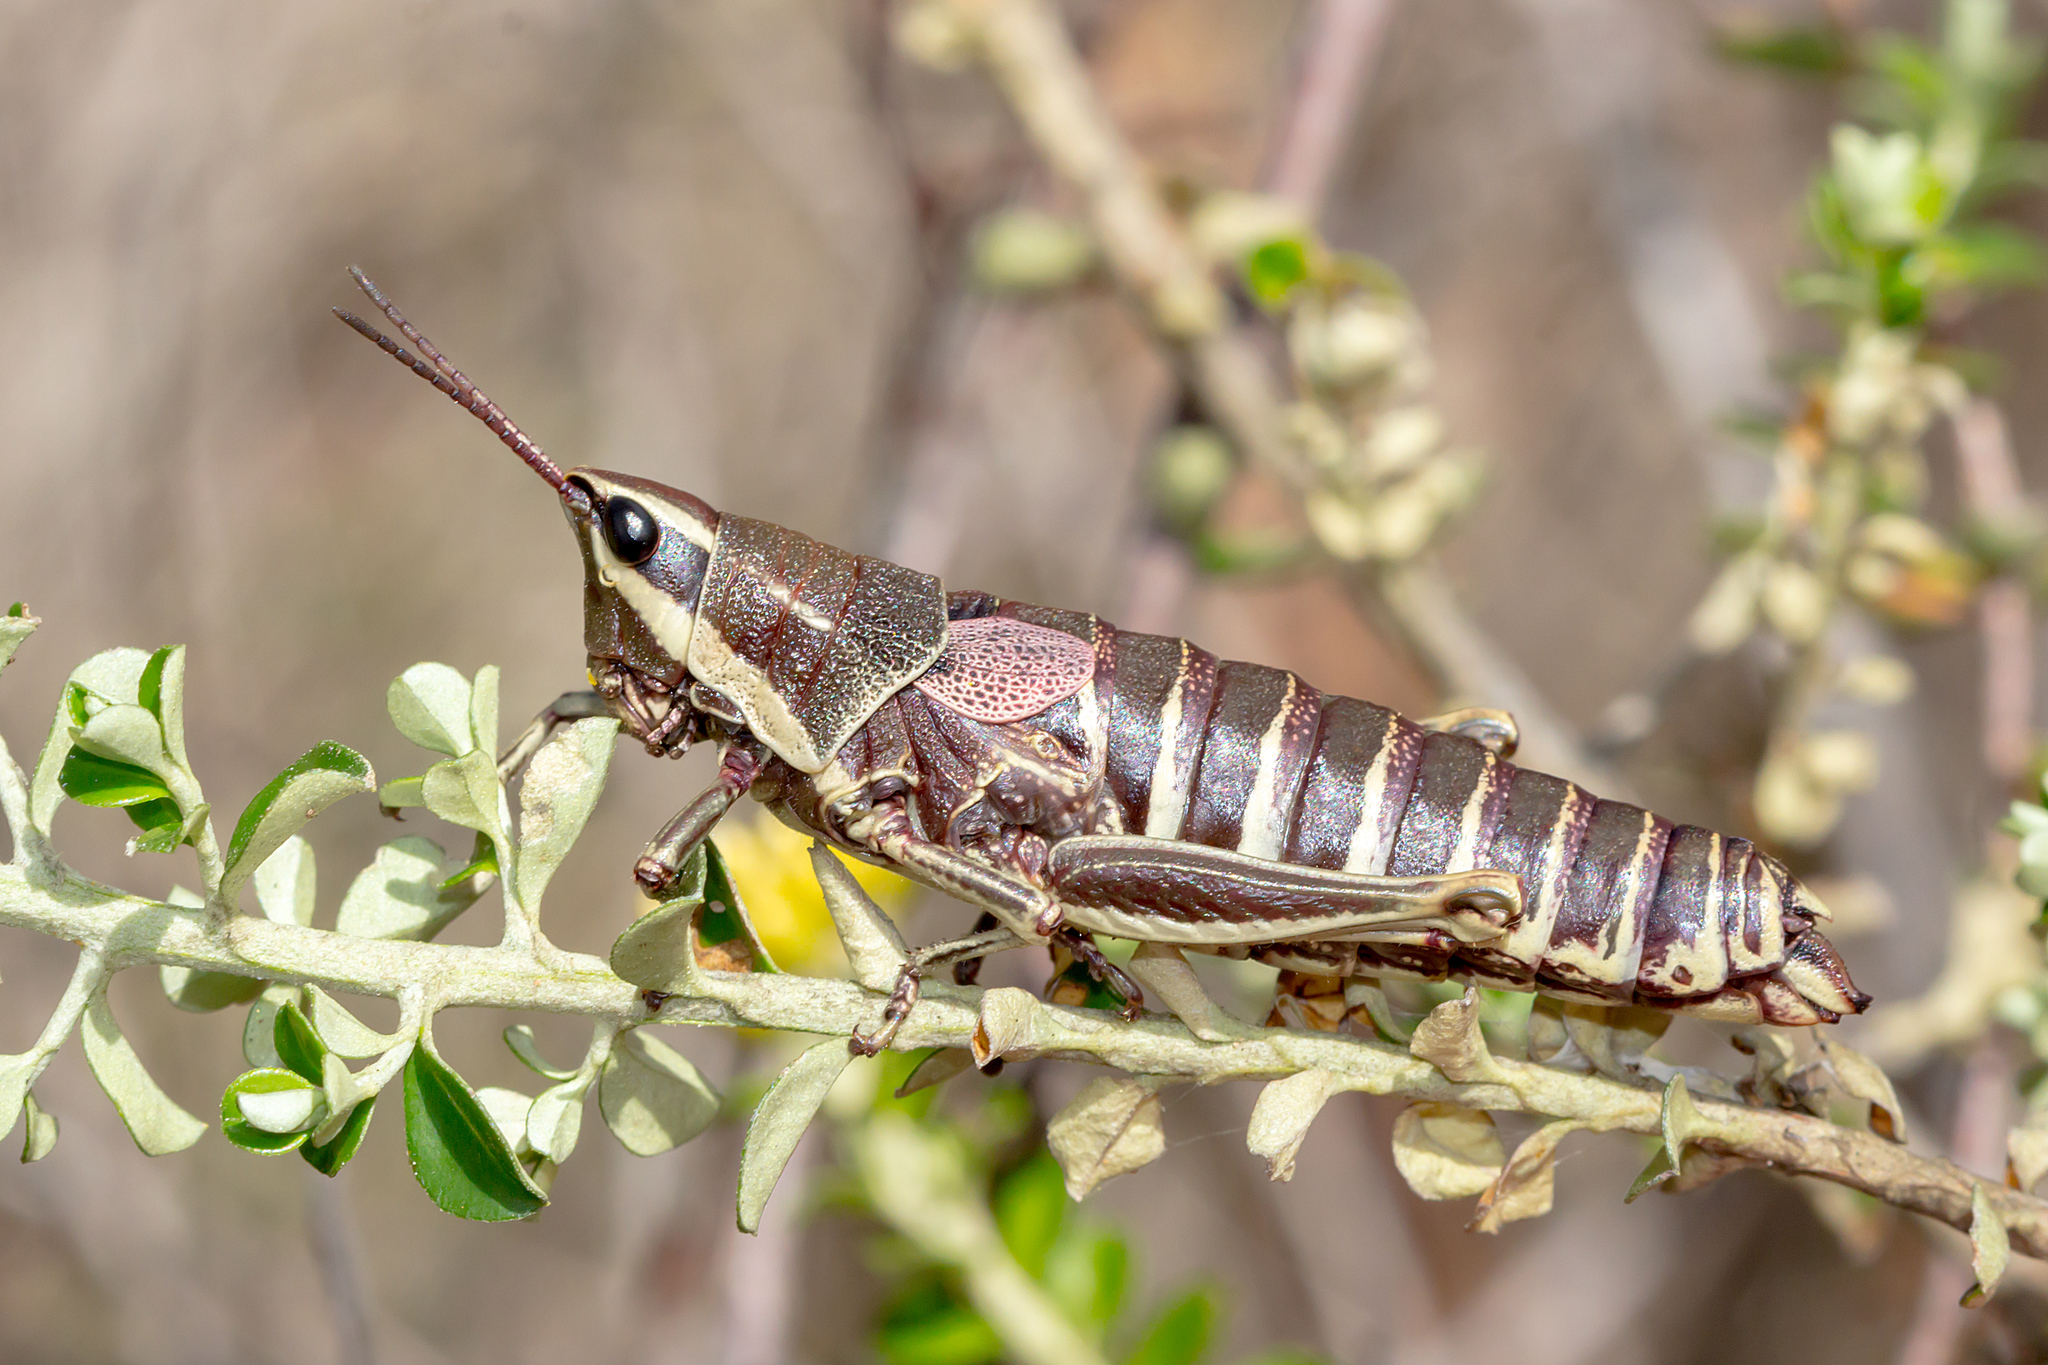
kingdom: Animalia
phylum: Arthropoda
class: Insecta
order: Orthoptera
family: Pyrgomorphidae
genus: Monistria
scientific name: Monistria discrepans
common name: Common pyrgomorph
